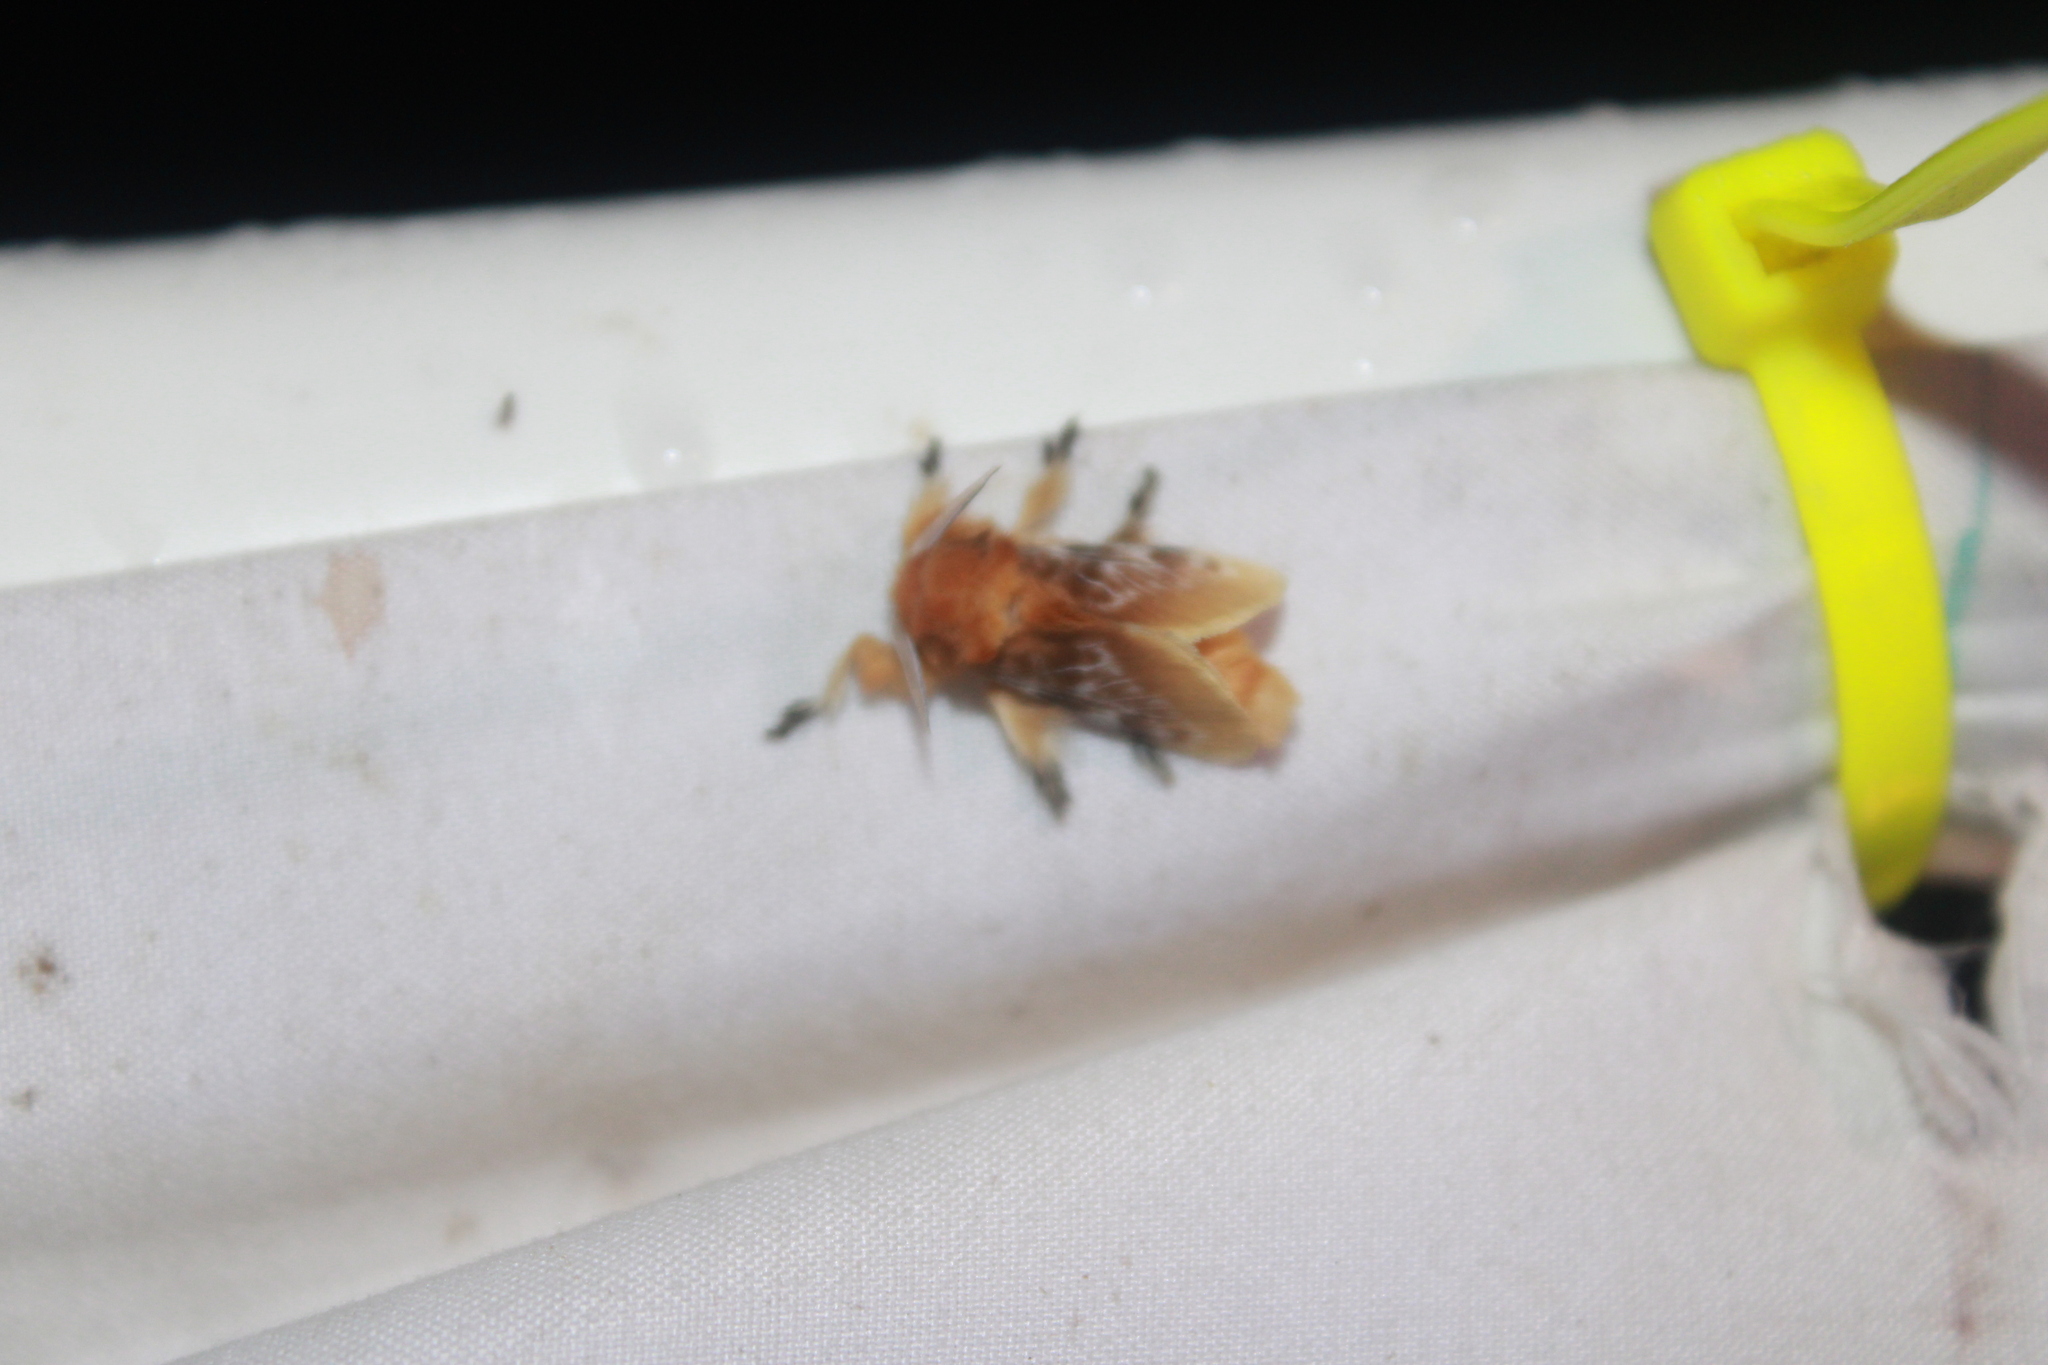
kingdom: Animalia
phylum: Arthropoda
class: Insecta
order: Lepidoptera
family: Megalopygidae
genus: Megalopyge
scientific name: Megalopyge opercularis
